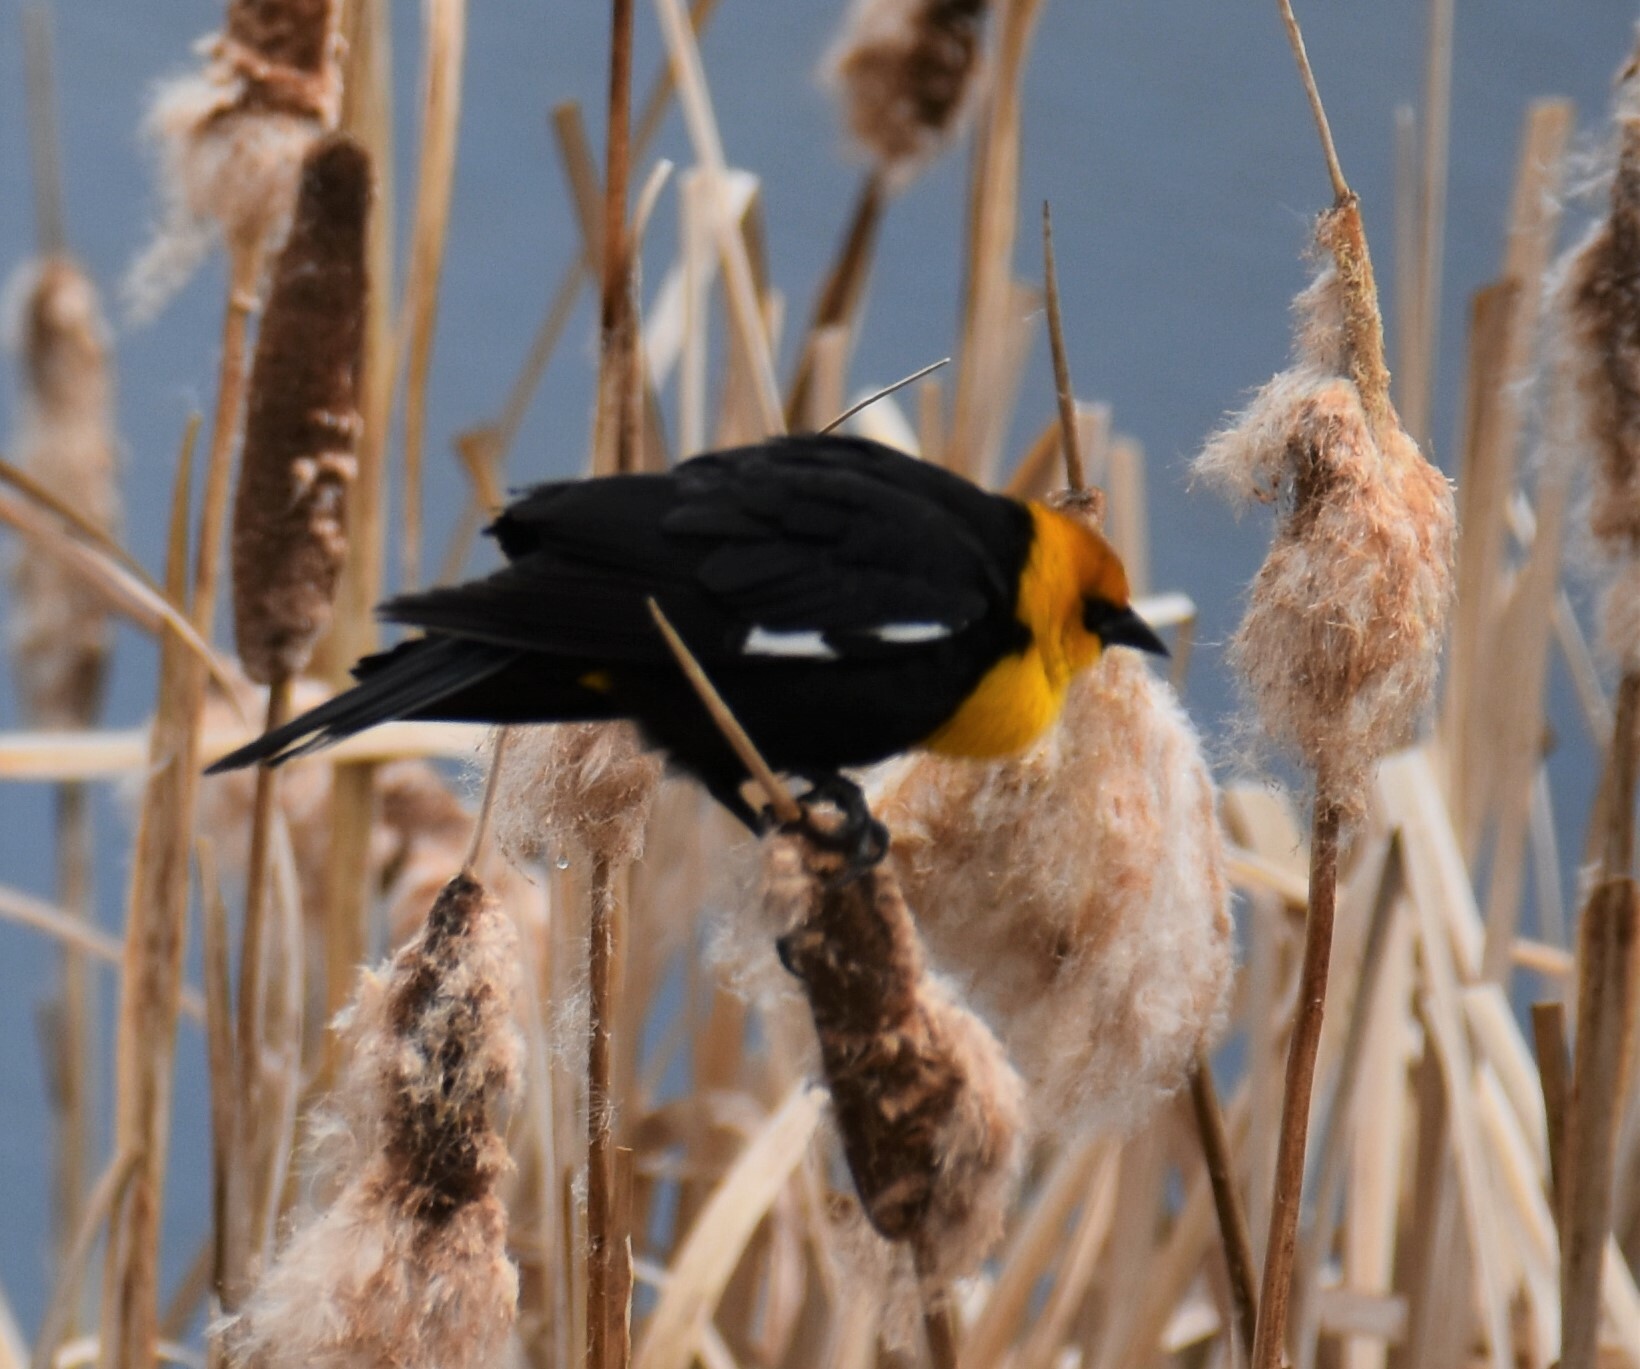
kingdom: Animalia
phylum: Chordata
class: Aves
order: Passeriformes
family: Icteridae
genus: Xanthocephalus
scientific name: Xanthocephalus xanthocephalus
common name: Yellow-headed blackbird
